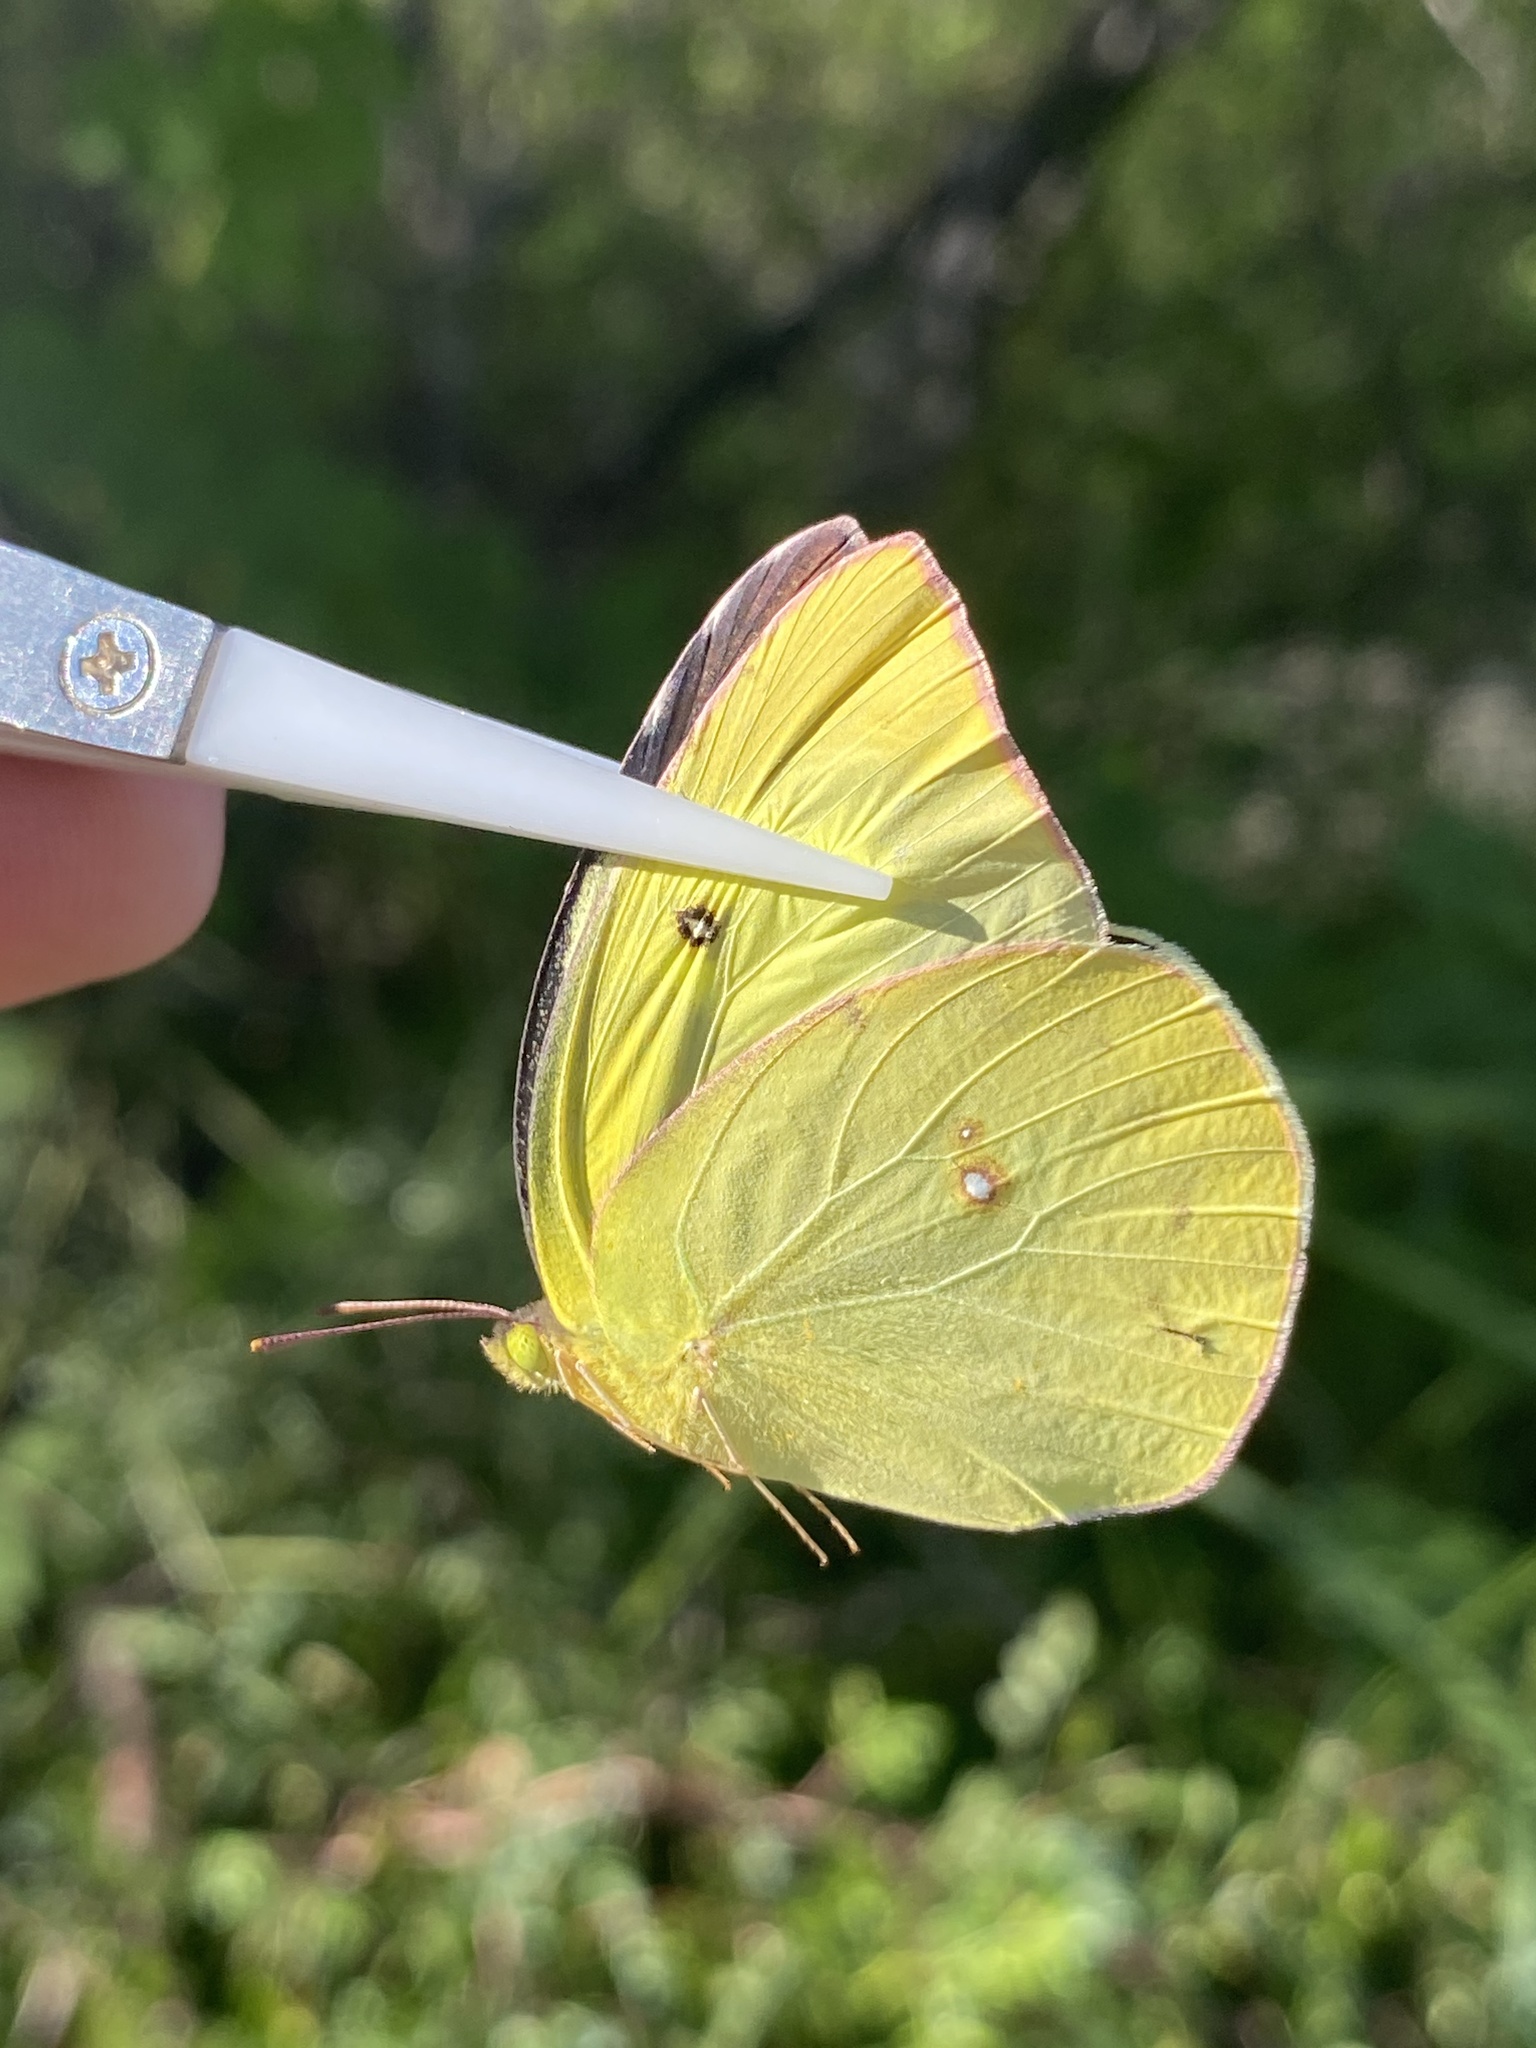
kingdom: Animalia
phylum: Arthropoda
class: Insecta
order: Lepidoptera
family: Pieridae
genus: Zerene
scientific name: Zerene cesonia
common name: Southern dogface
